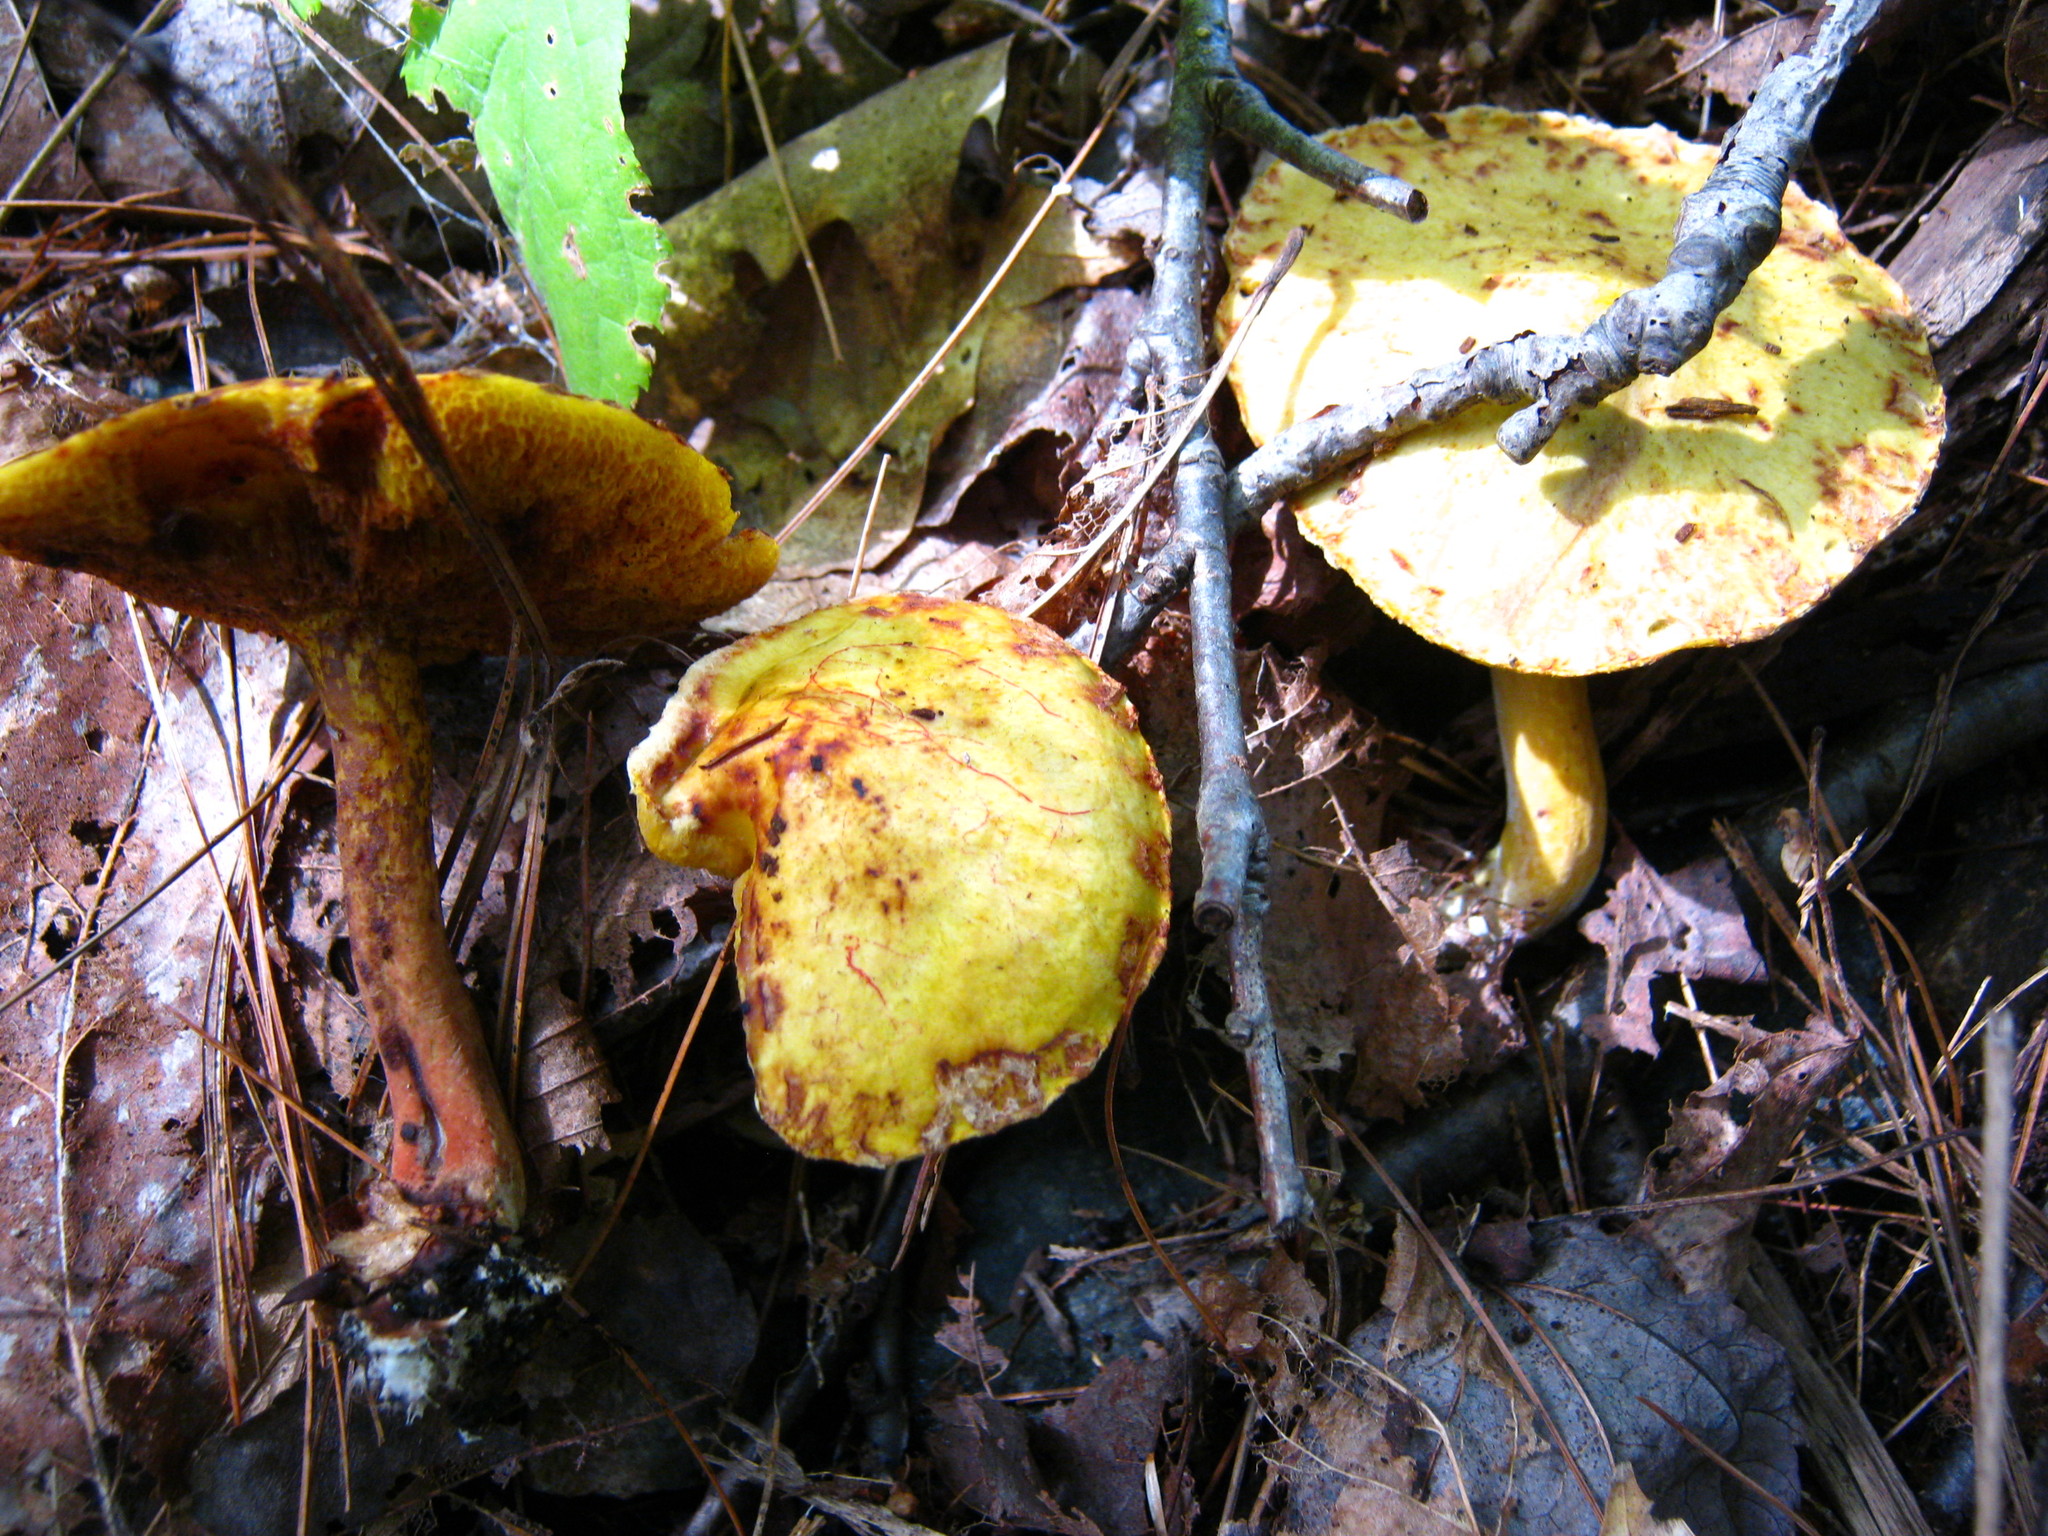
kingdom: Fungi
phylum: Basidiomycota
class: Agaricomycetes
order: Boletales
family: Suillaceae
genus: Suillus
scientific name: Suillus americanus
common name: Chicken fat mushroom
